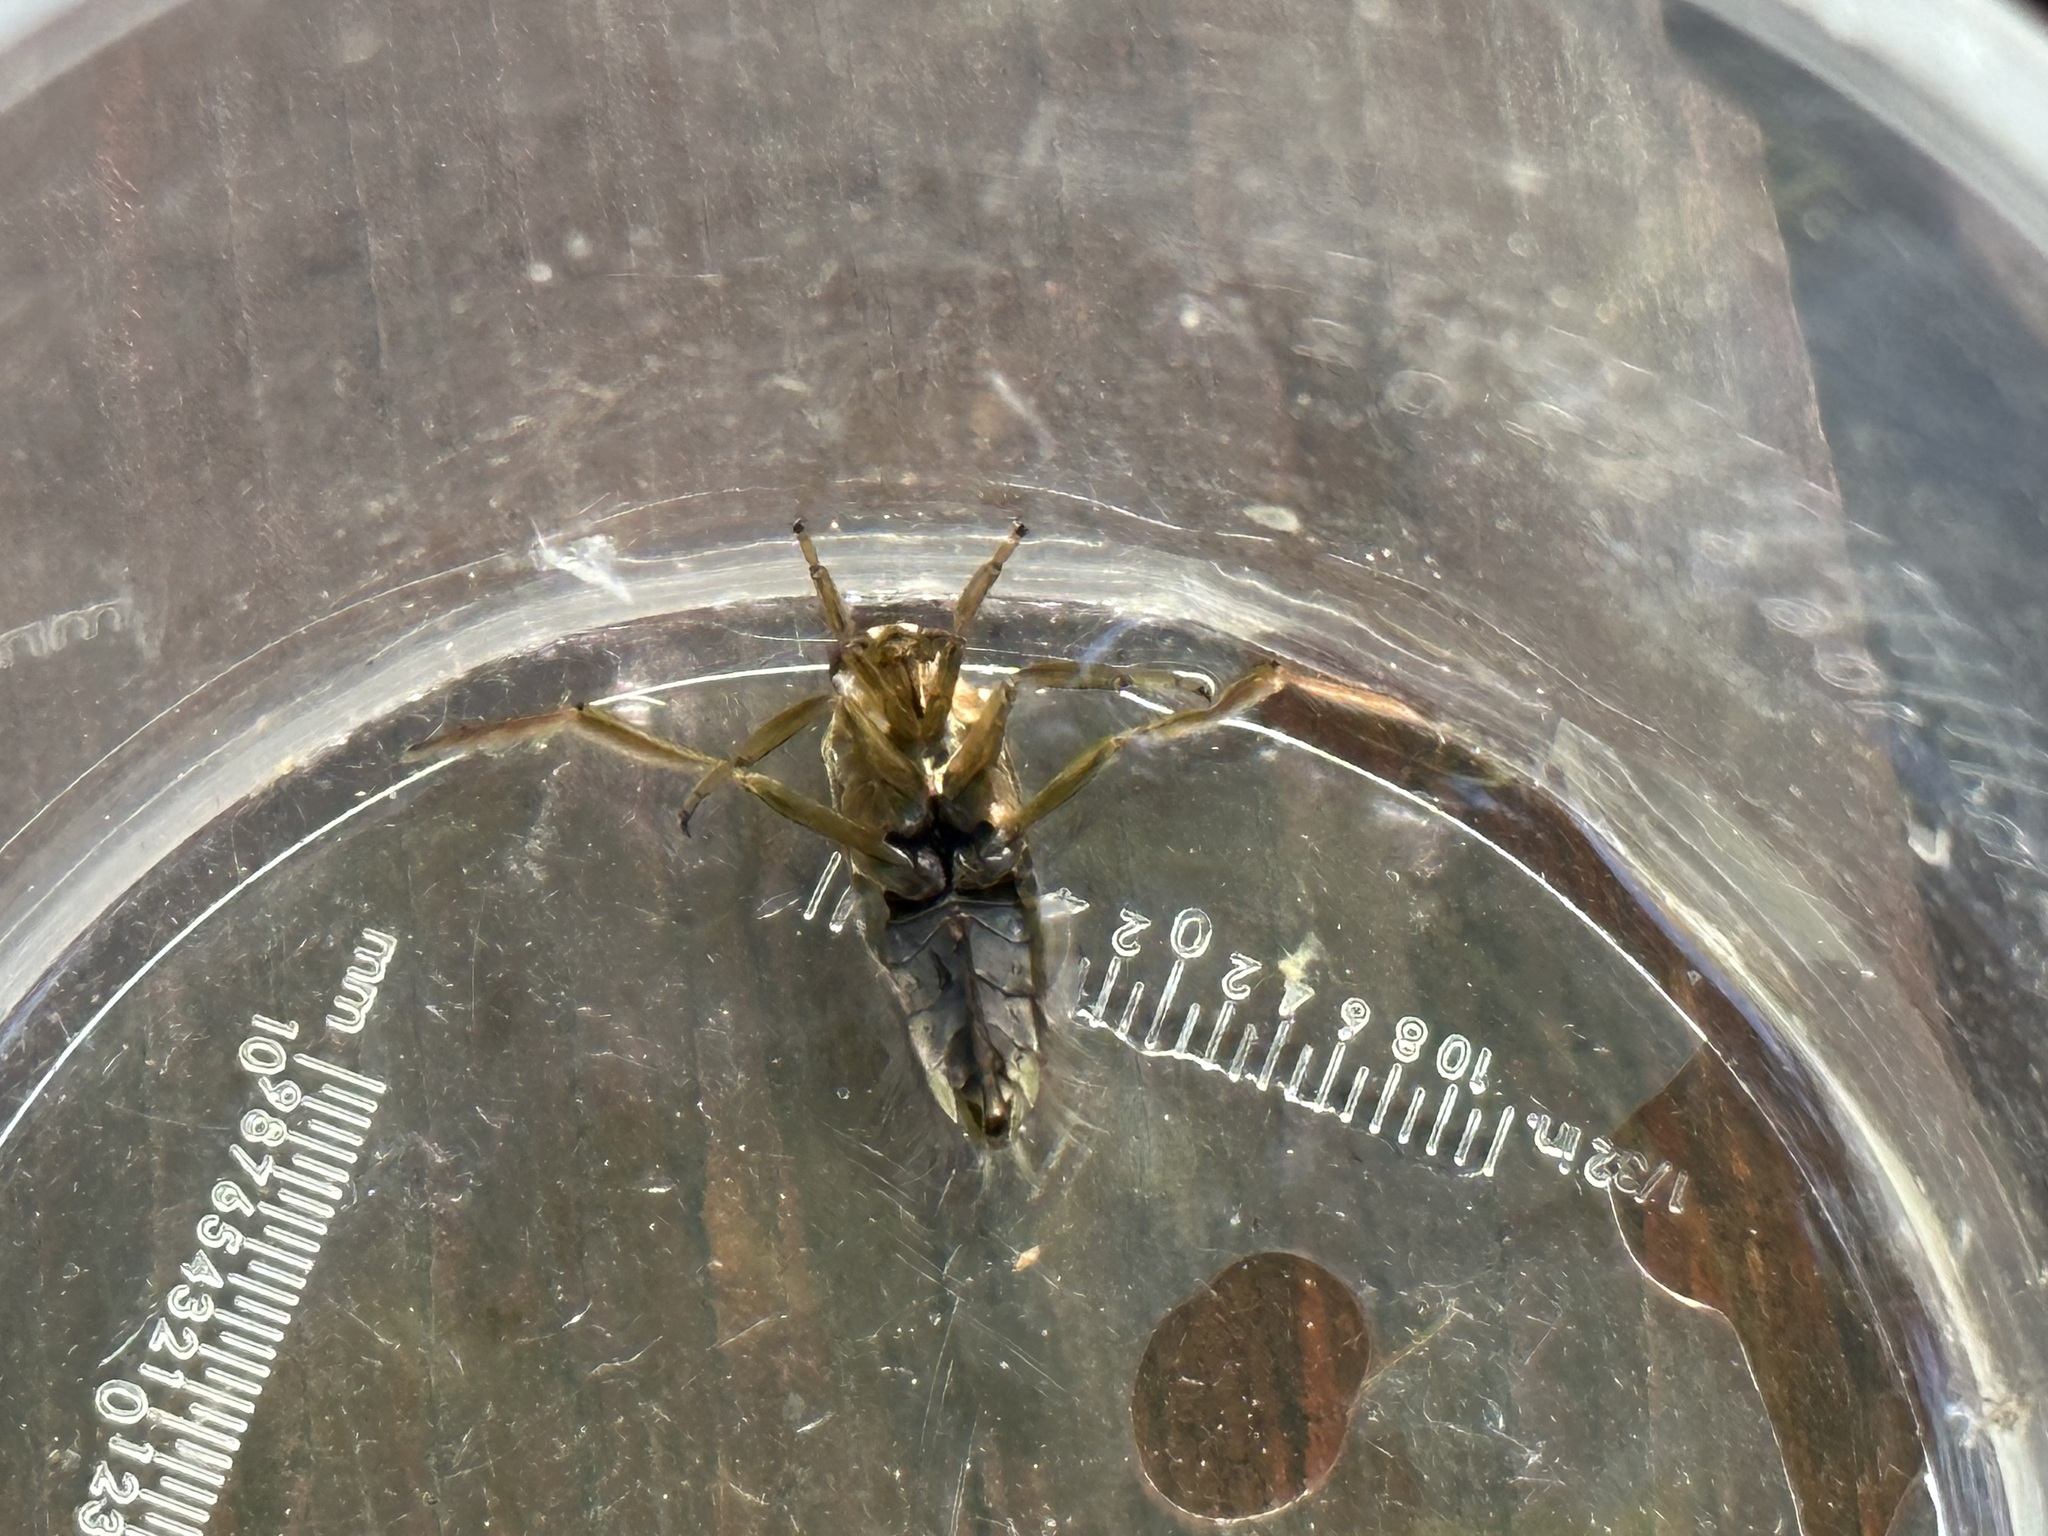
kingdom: Animalia
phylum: Arthropoda
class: Insecta
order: Hemiptera
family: Notonectidae
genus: Notonecta
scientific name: Notonecta maculata
